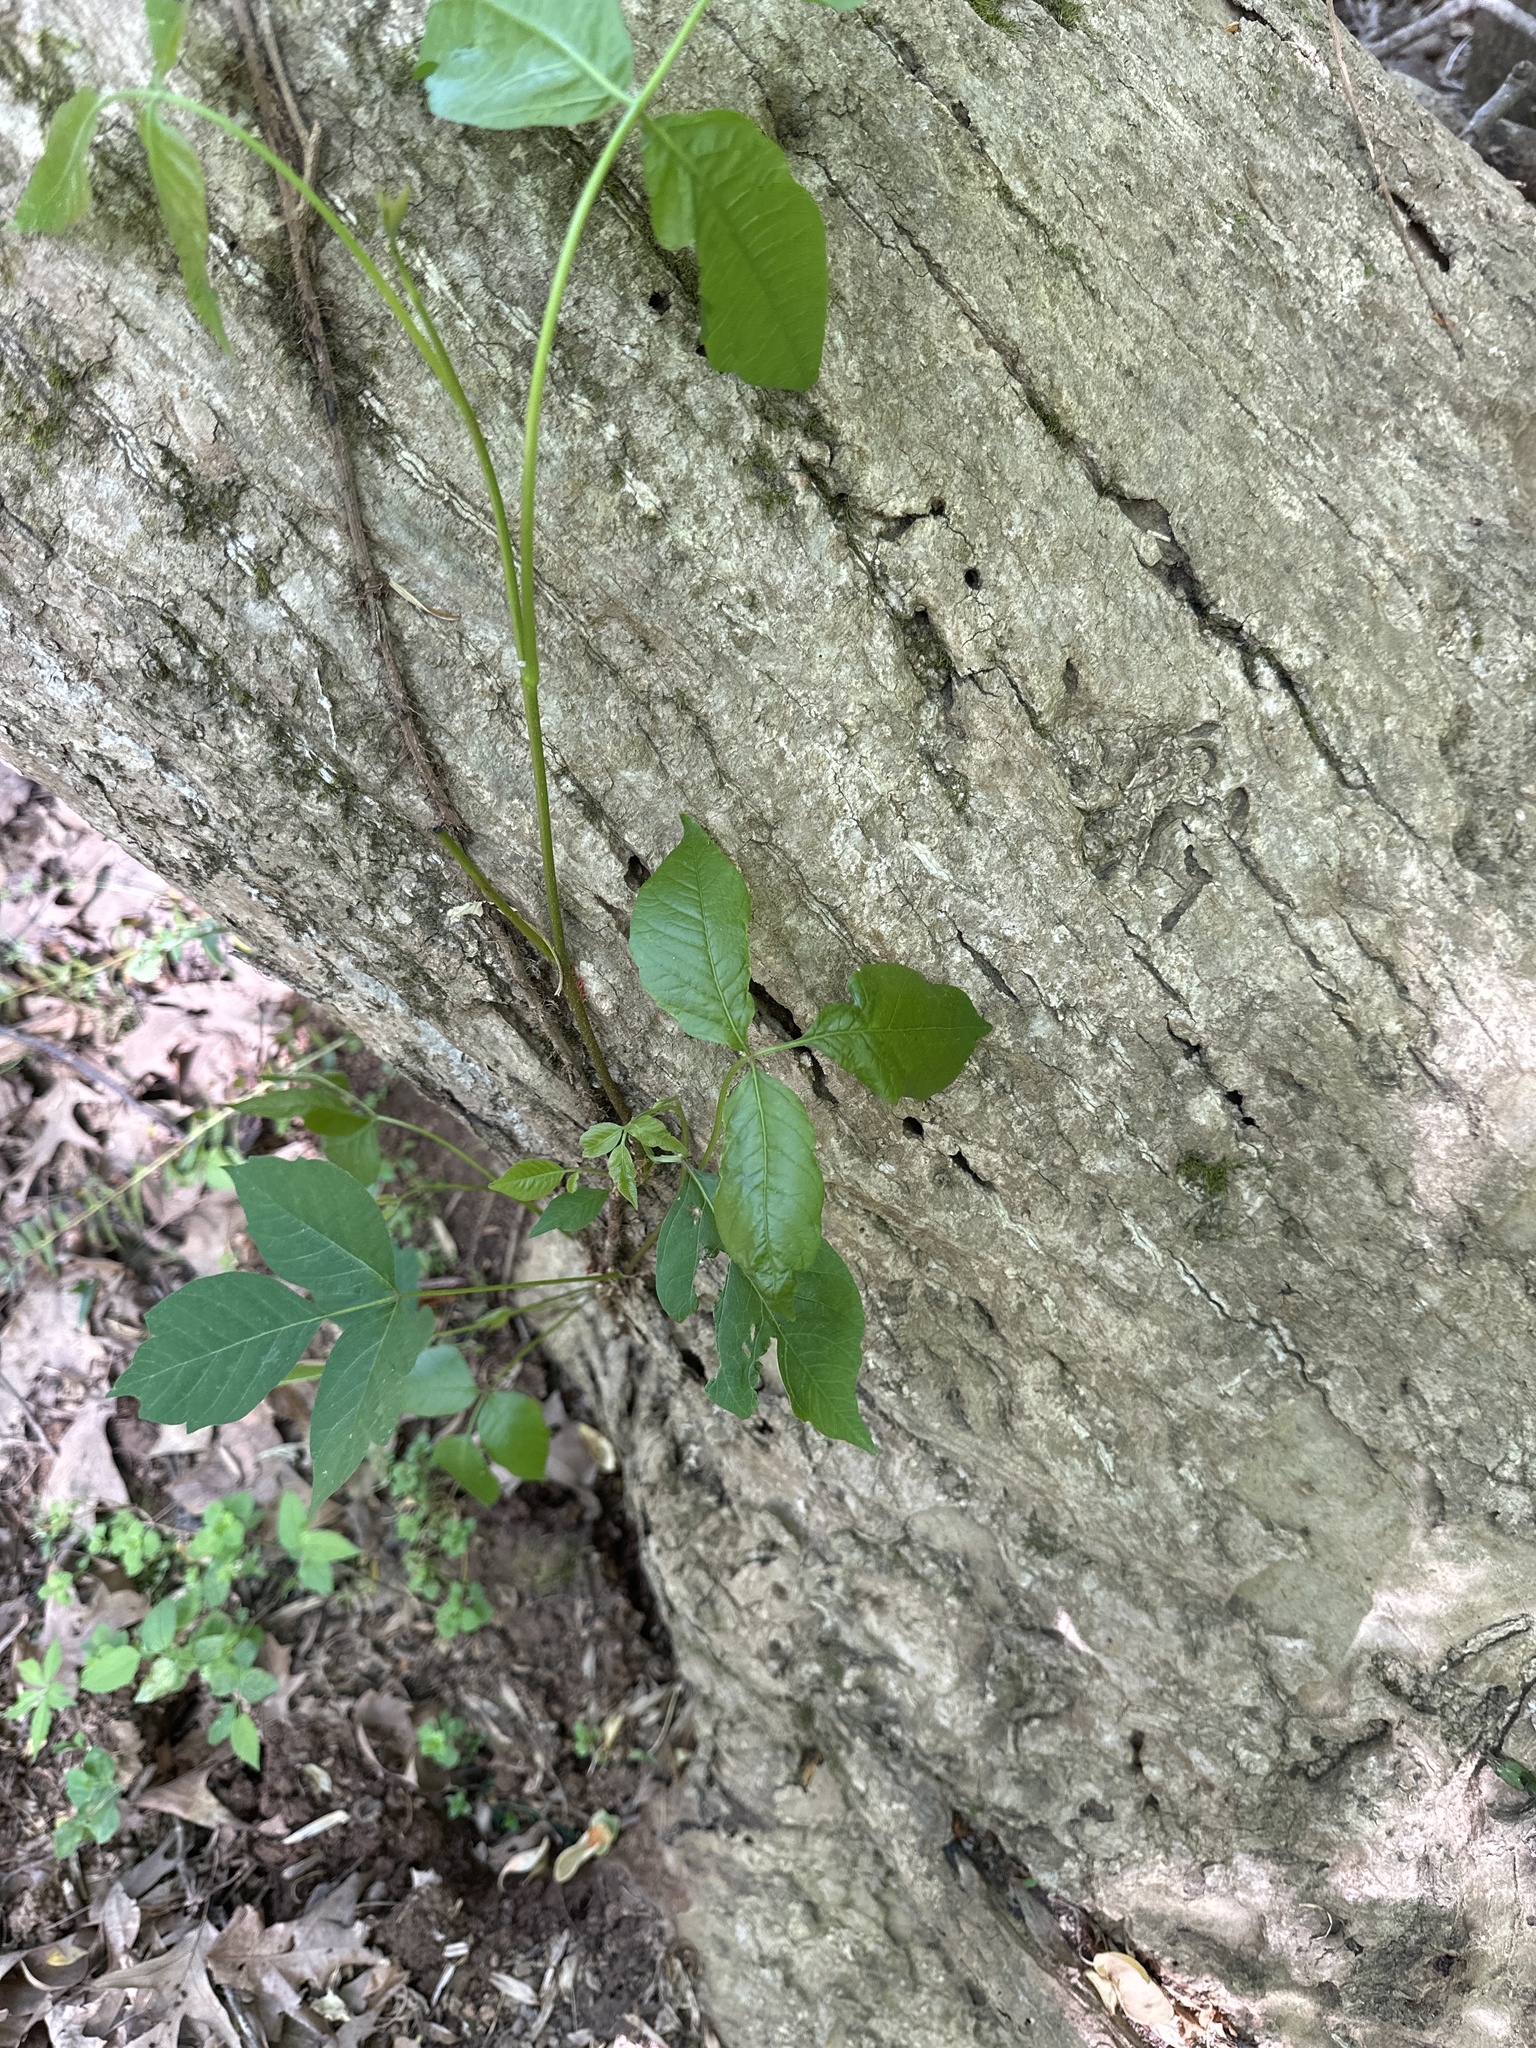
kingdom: Plantae
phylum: Tracheophyta
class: Magnoliopsida
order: Sapindales
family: Anacardiaceae
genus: Toxicodendron
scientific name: Toxicodendron radicans
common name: Poison ivy
